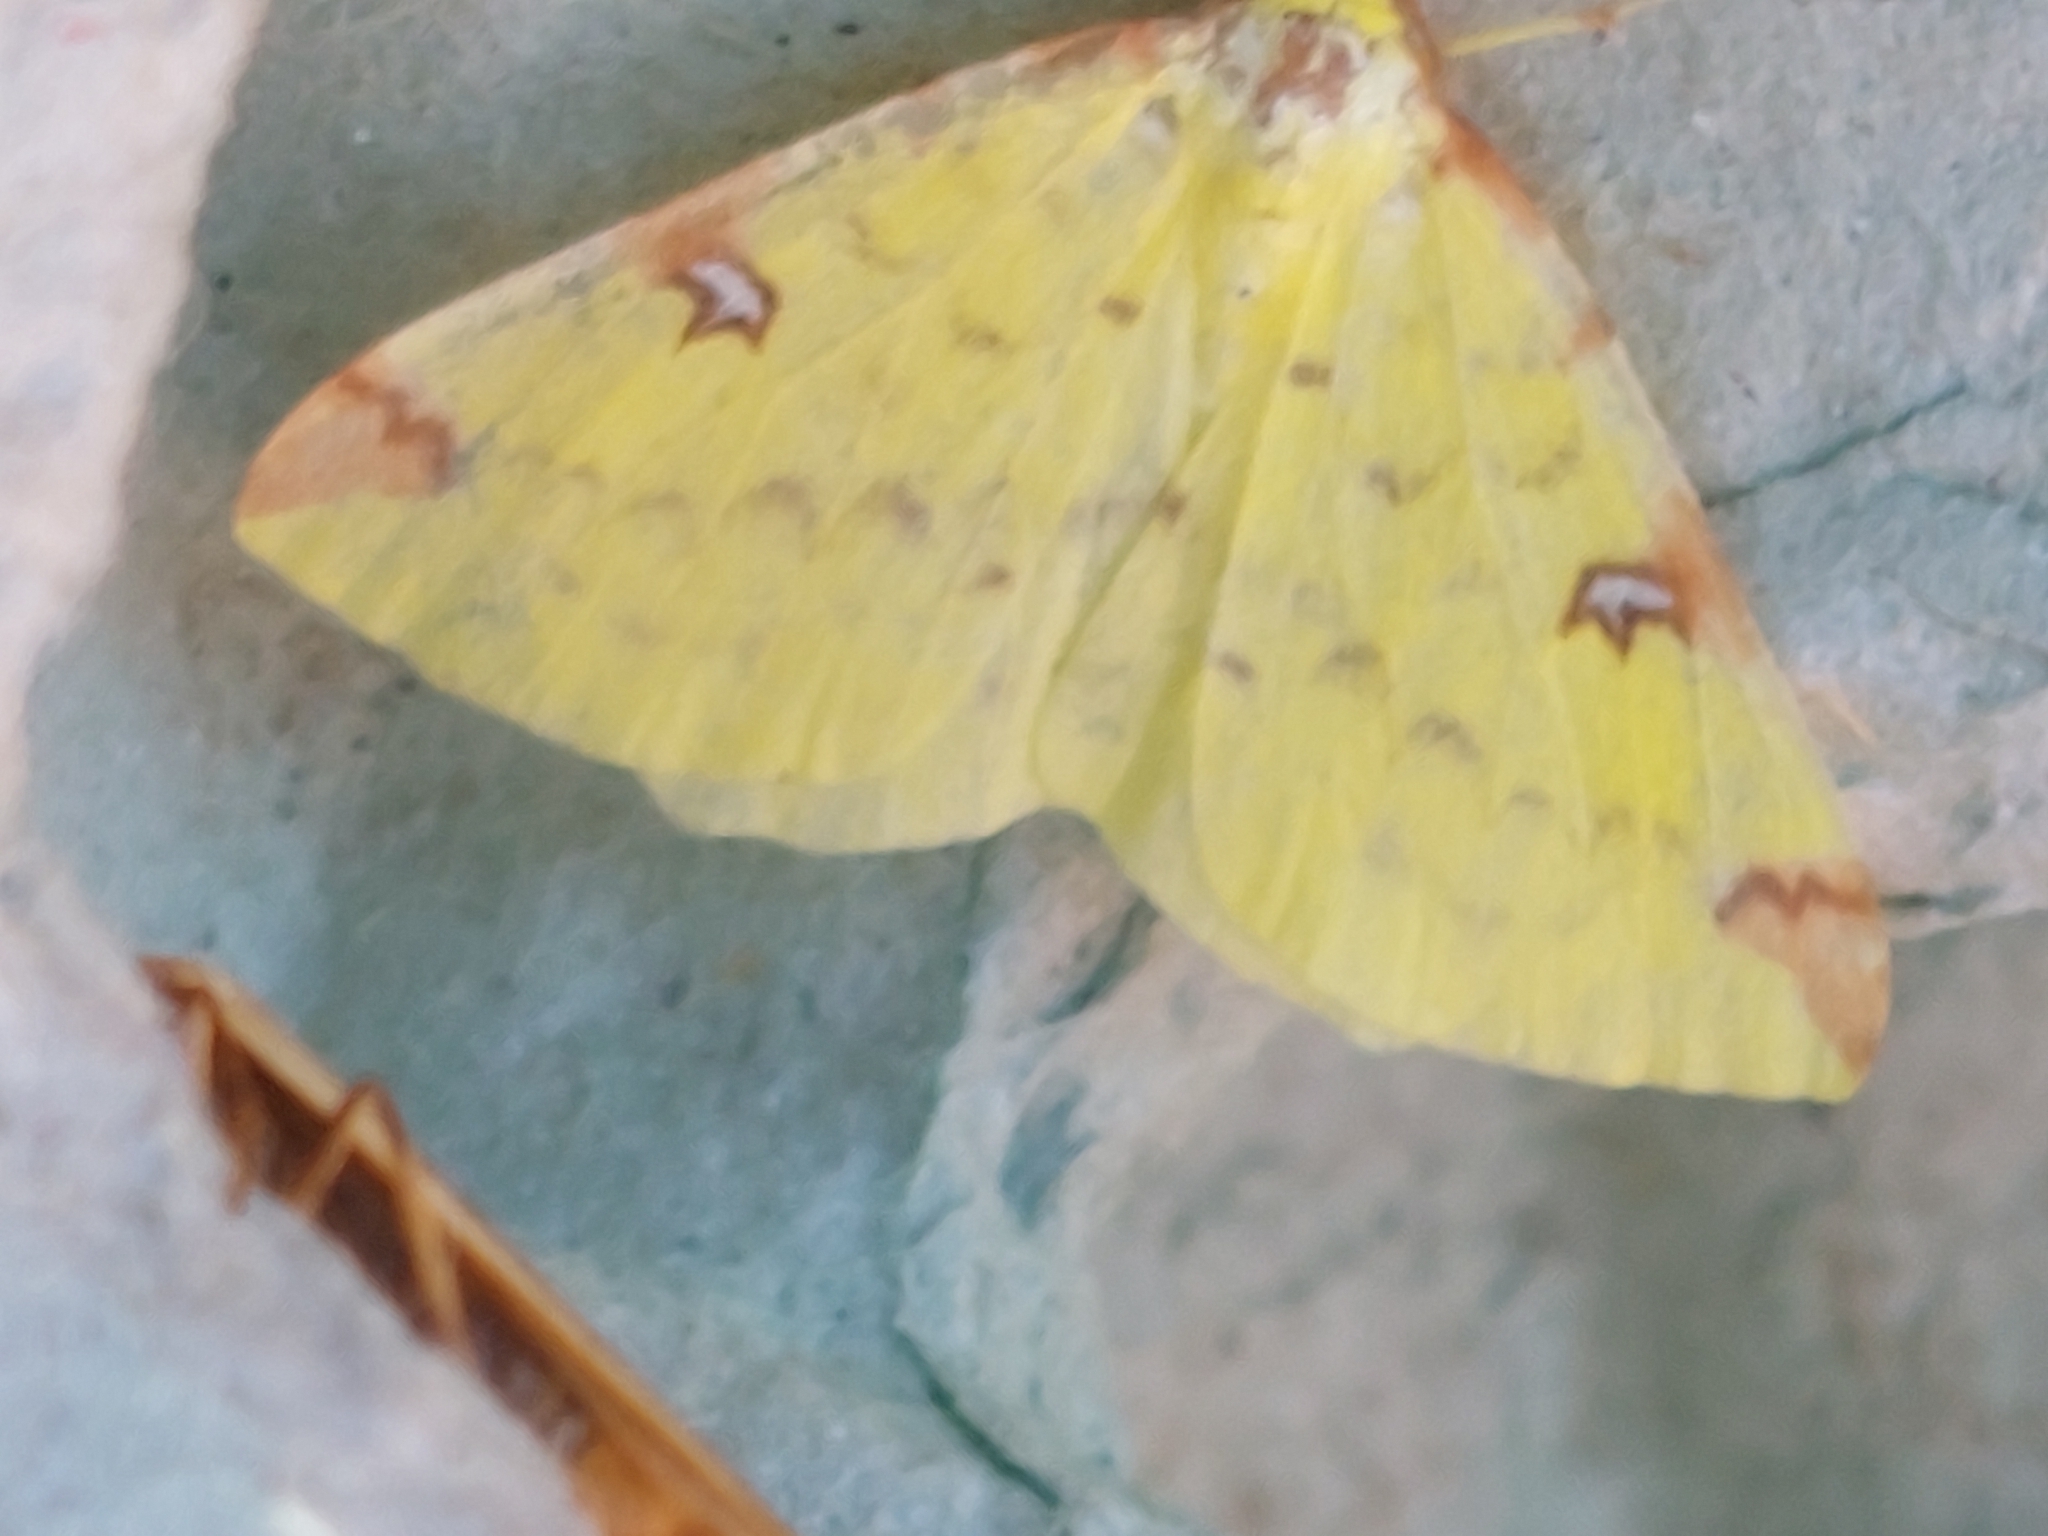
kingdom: Animalia
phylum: Arthropoda
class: Insecta
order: Lepidoptera
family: Geometridae
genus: Opisthograptis
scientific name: Opisthograptis luteolata
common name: Brimstone moth
